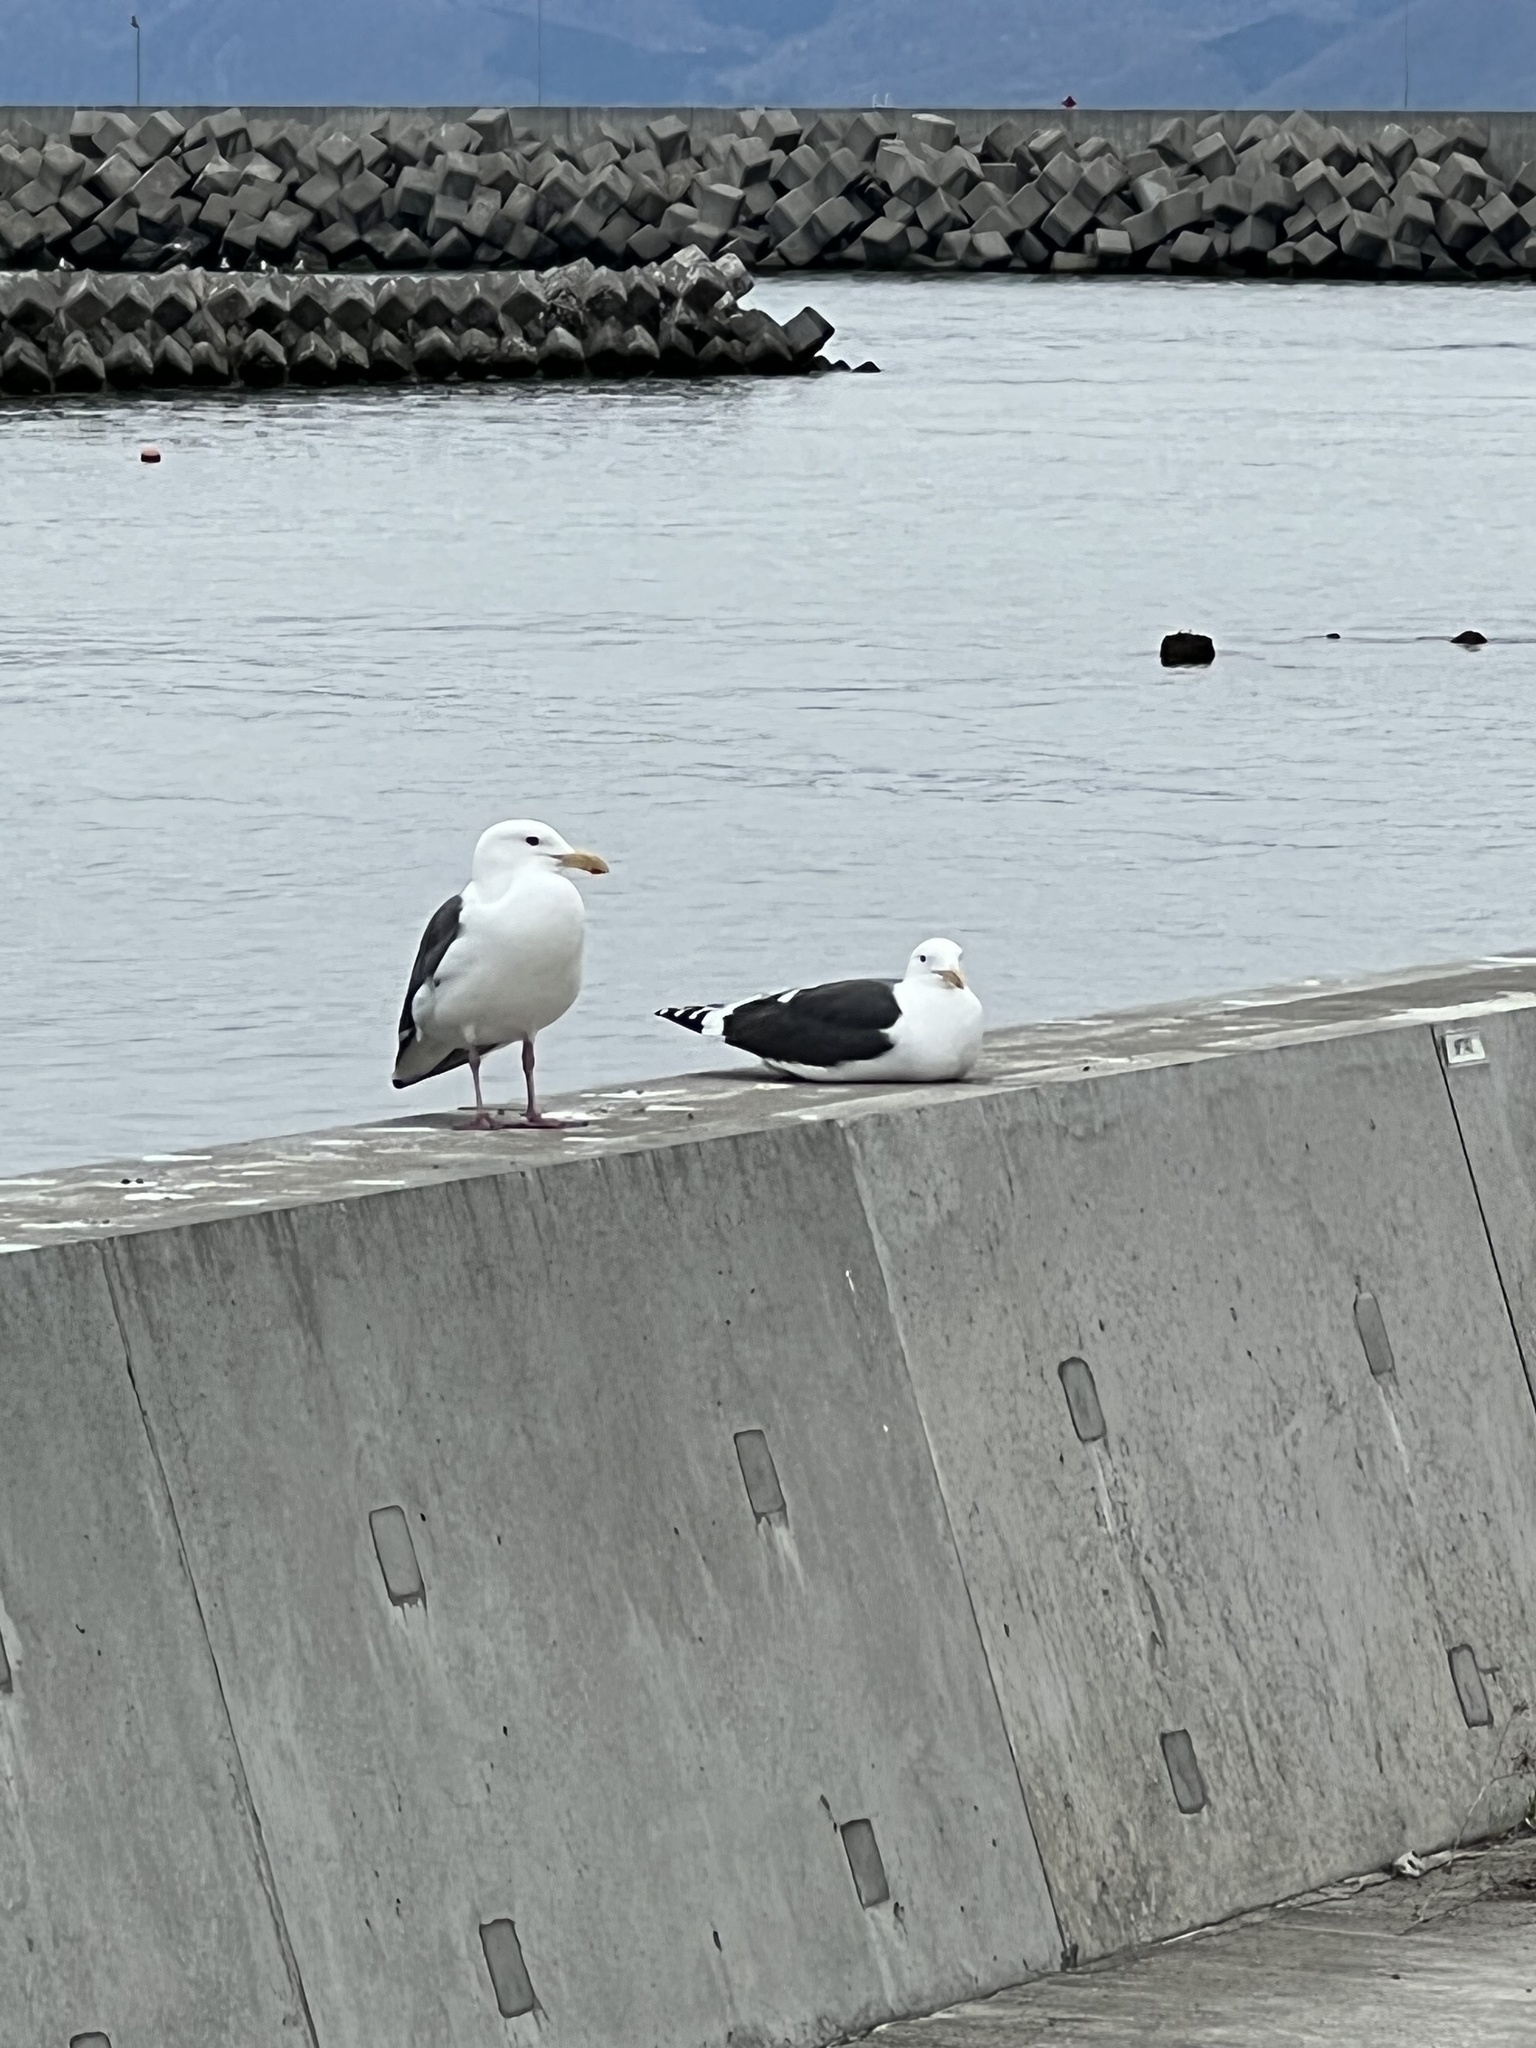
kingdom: Animalia
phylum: Chordata
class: Aves
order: Charadriiformes
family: Laridae
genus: Larus
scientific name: Larus schistisagus
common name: Slaty-backed gull
